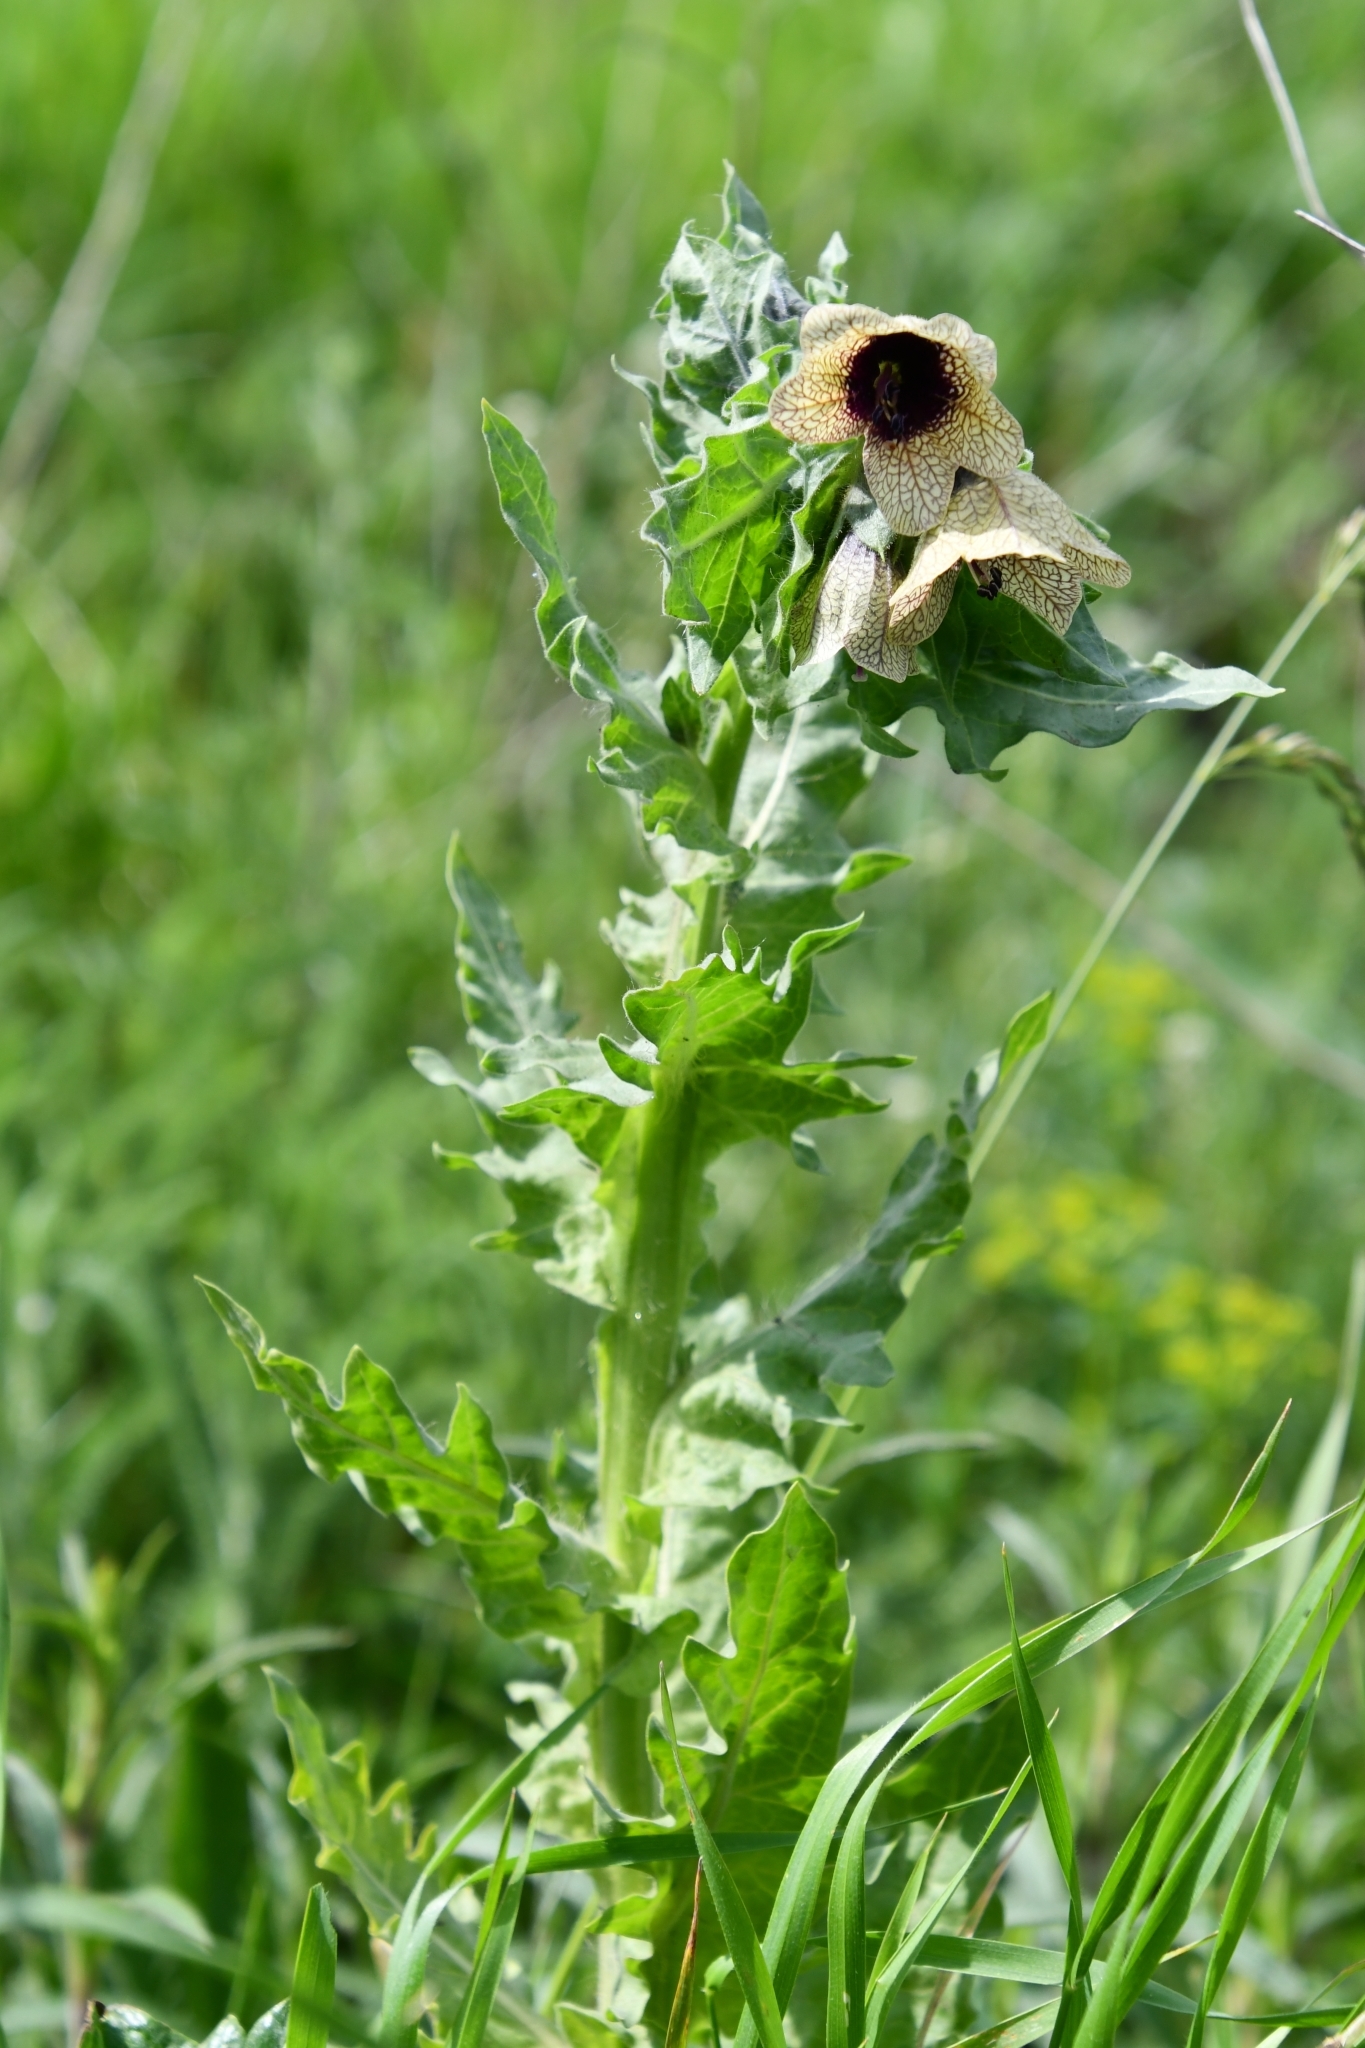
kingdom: Plantae
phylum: Tracheophyta
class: Magnoliopsida
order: Solanales
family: Solanaceae
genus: Hyoscyamus
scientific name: Hyoscyamus niger
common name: Henbane
